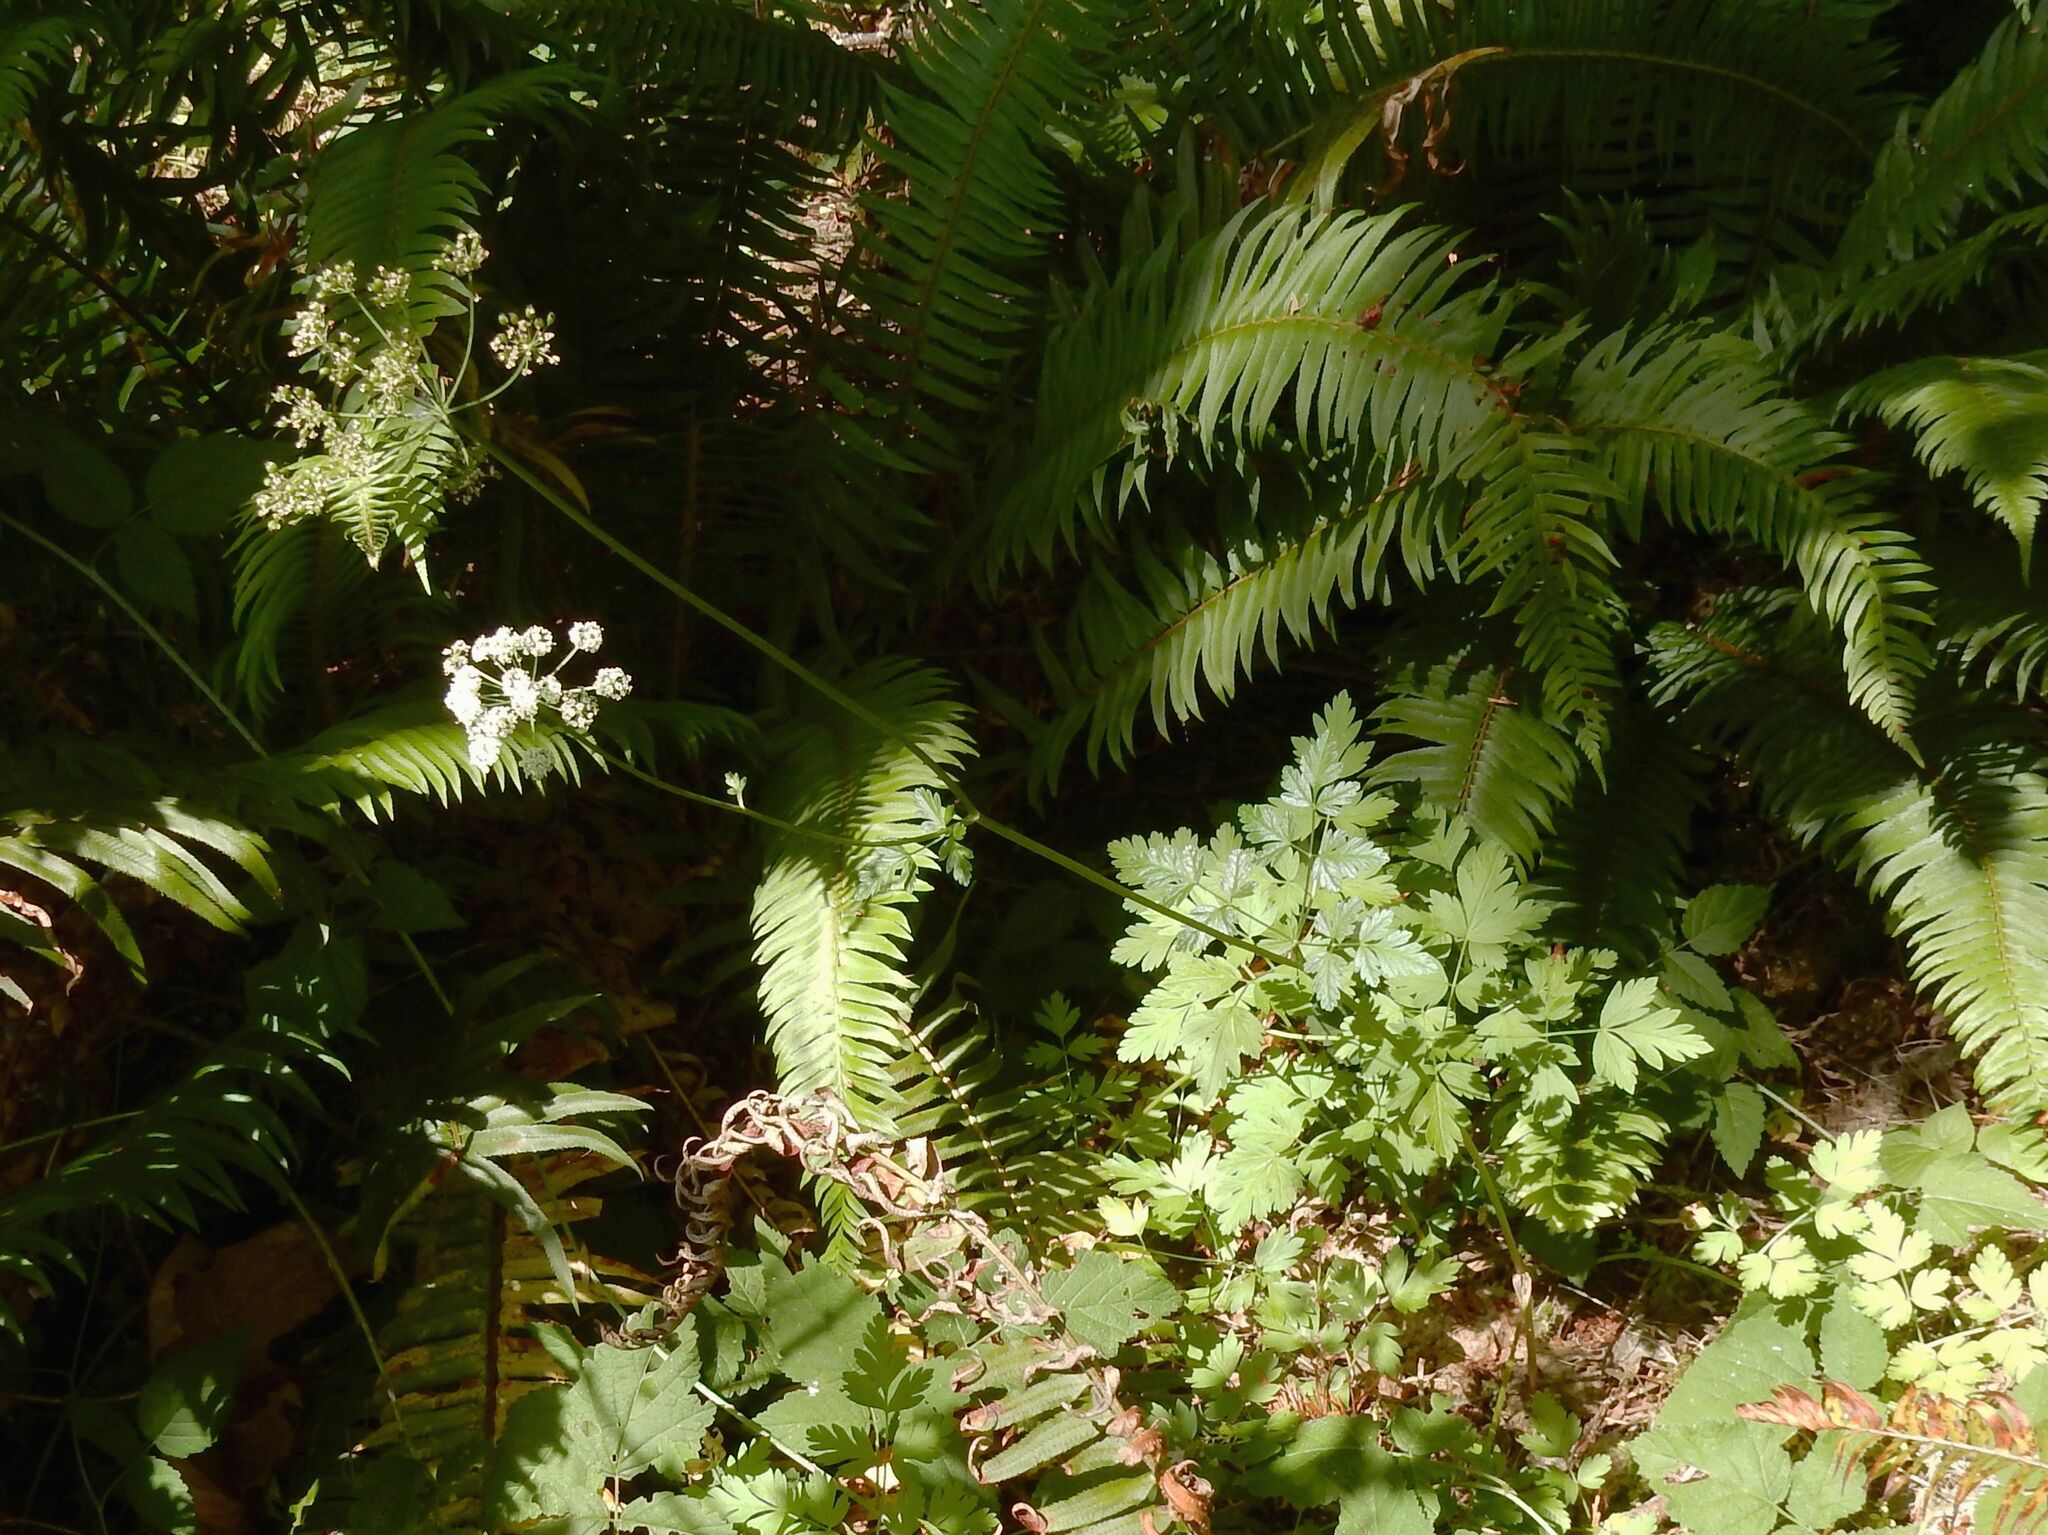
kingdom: Plantae
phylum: Tracheophyta
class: Magnoliopsida
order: Apiales
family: Apiaceae
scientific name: Apiaceae
